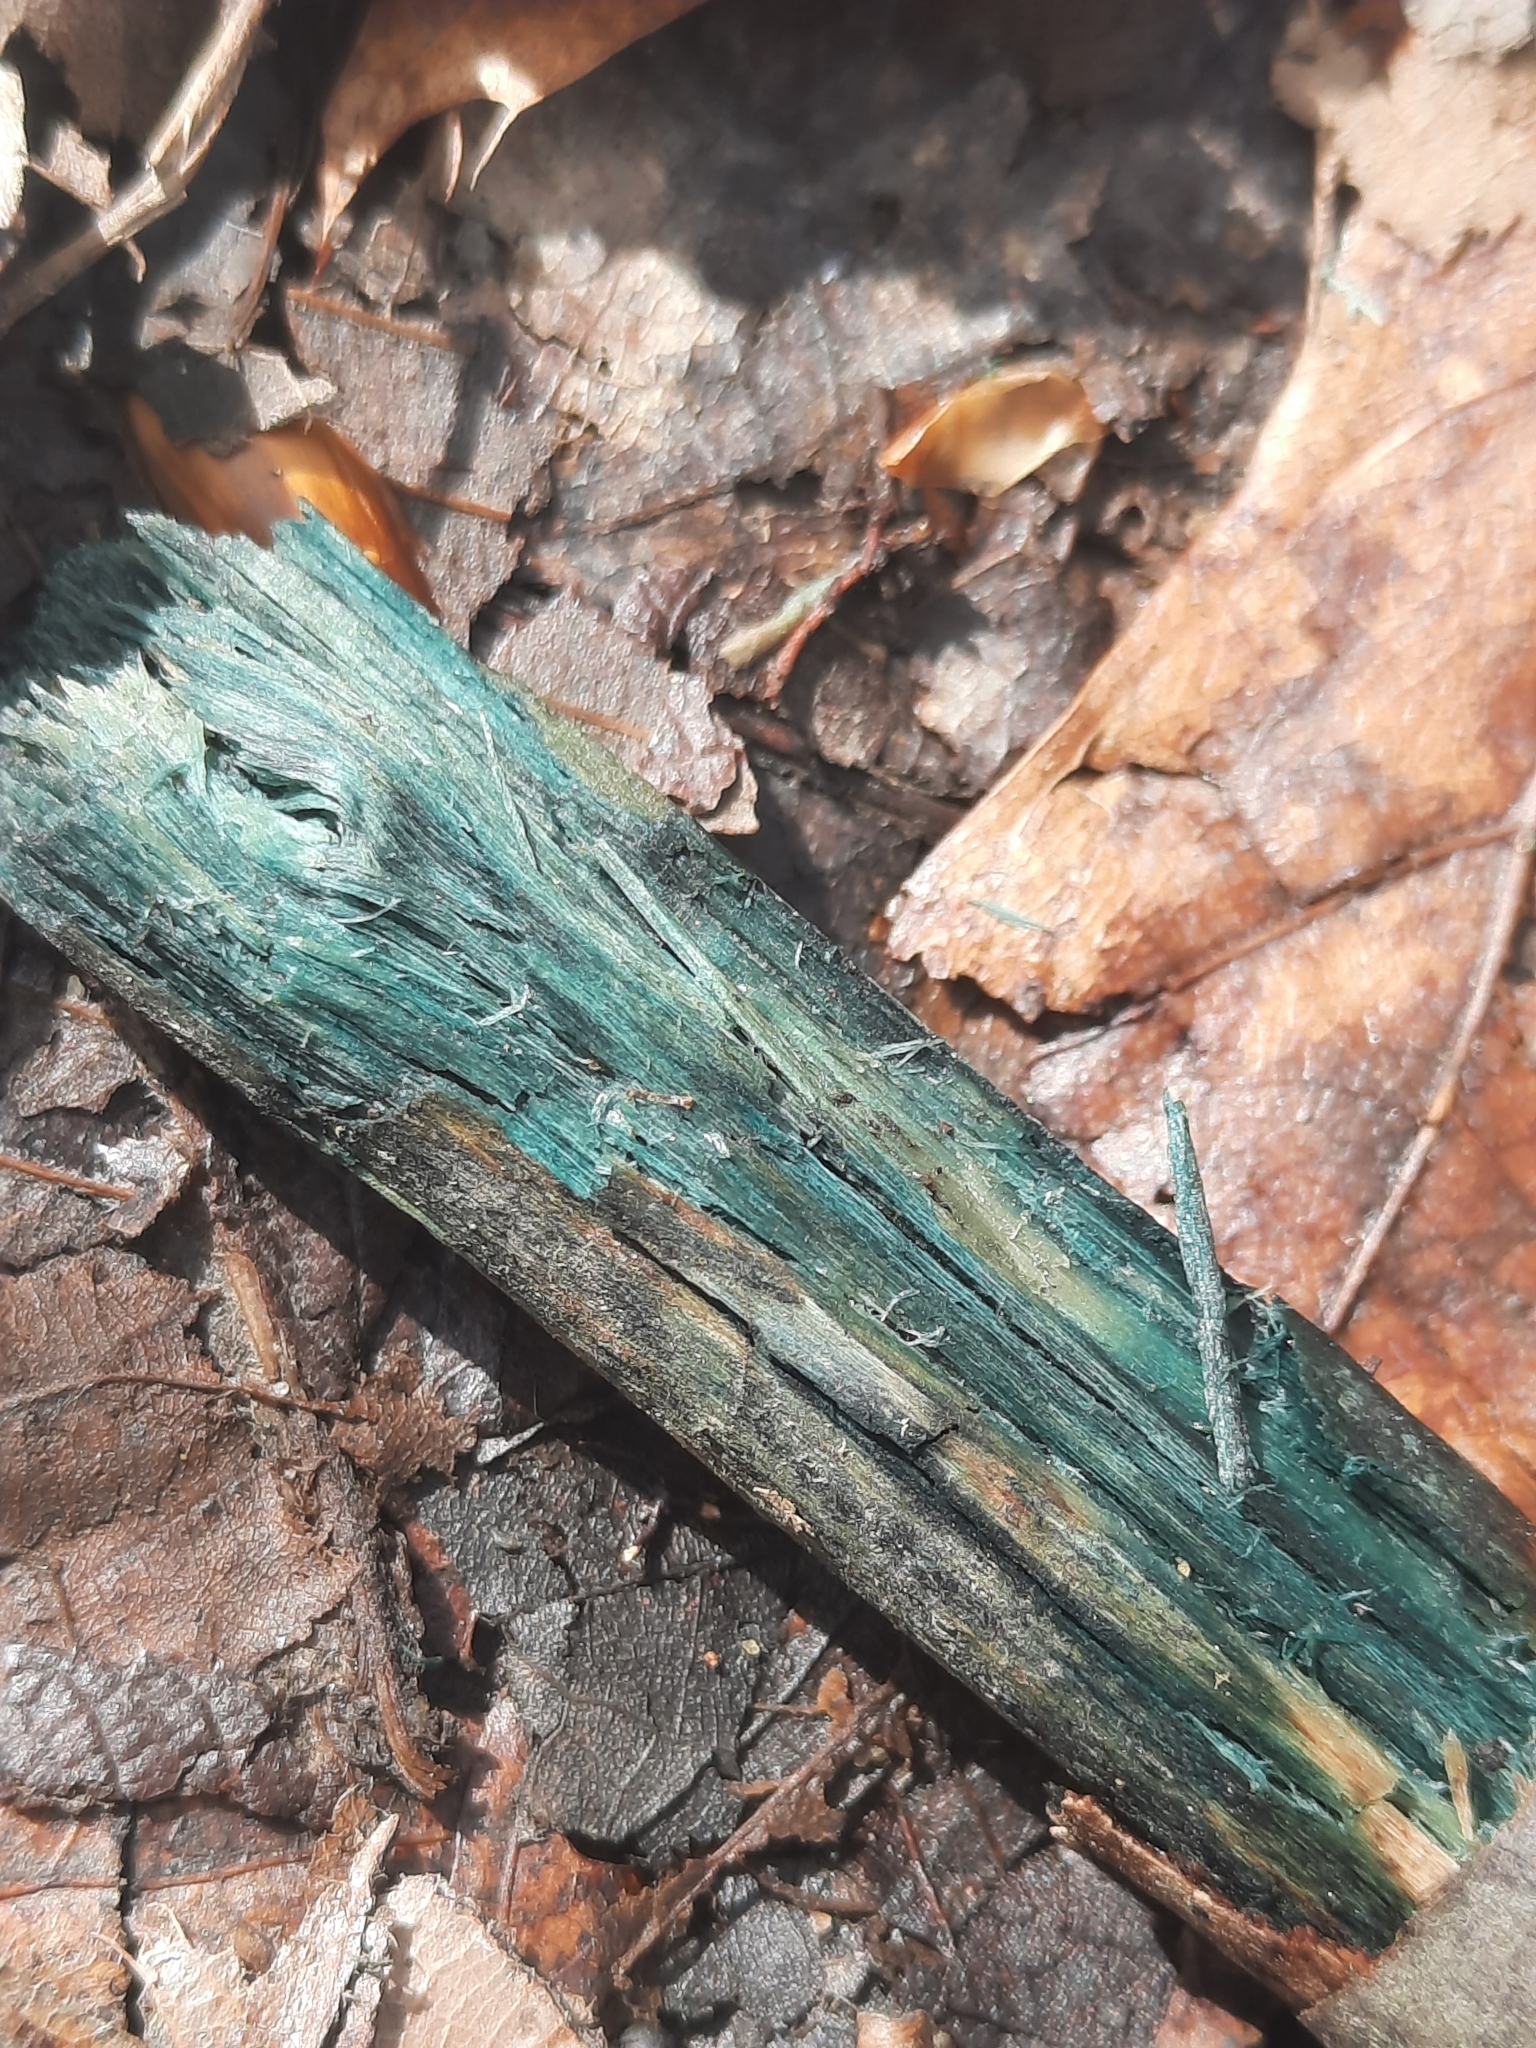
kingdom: Fungi
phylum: Ascomycota
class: Leotiomycetes
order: Helotiales
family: Chlorociboriaceae
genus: Chlorociboria
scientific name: Chlorociboria
